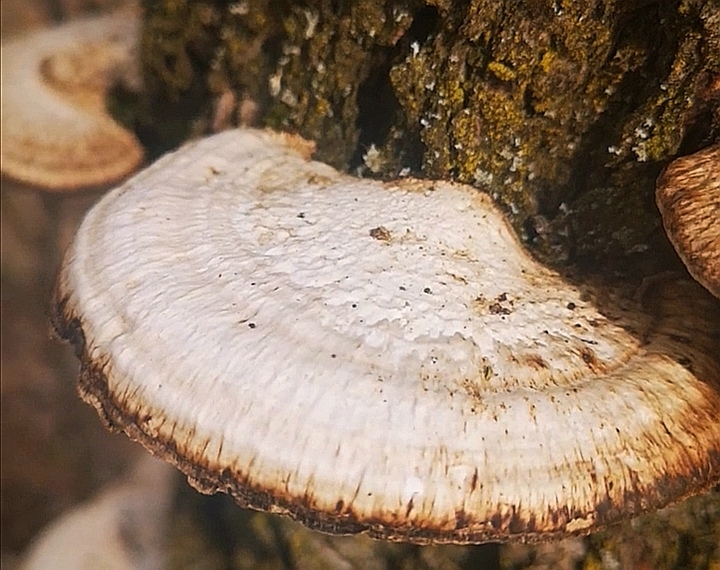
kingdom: Fungi
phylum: Basidiomycota
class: Agaricomycetes
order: Polyporales
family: Polyporaceae
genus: Daedaleopsis
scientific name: Daedaleopsis confragosa
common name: Blushing bracket
